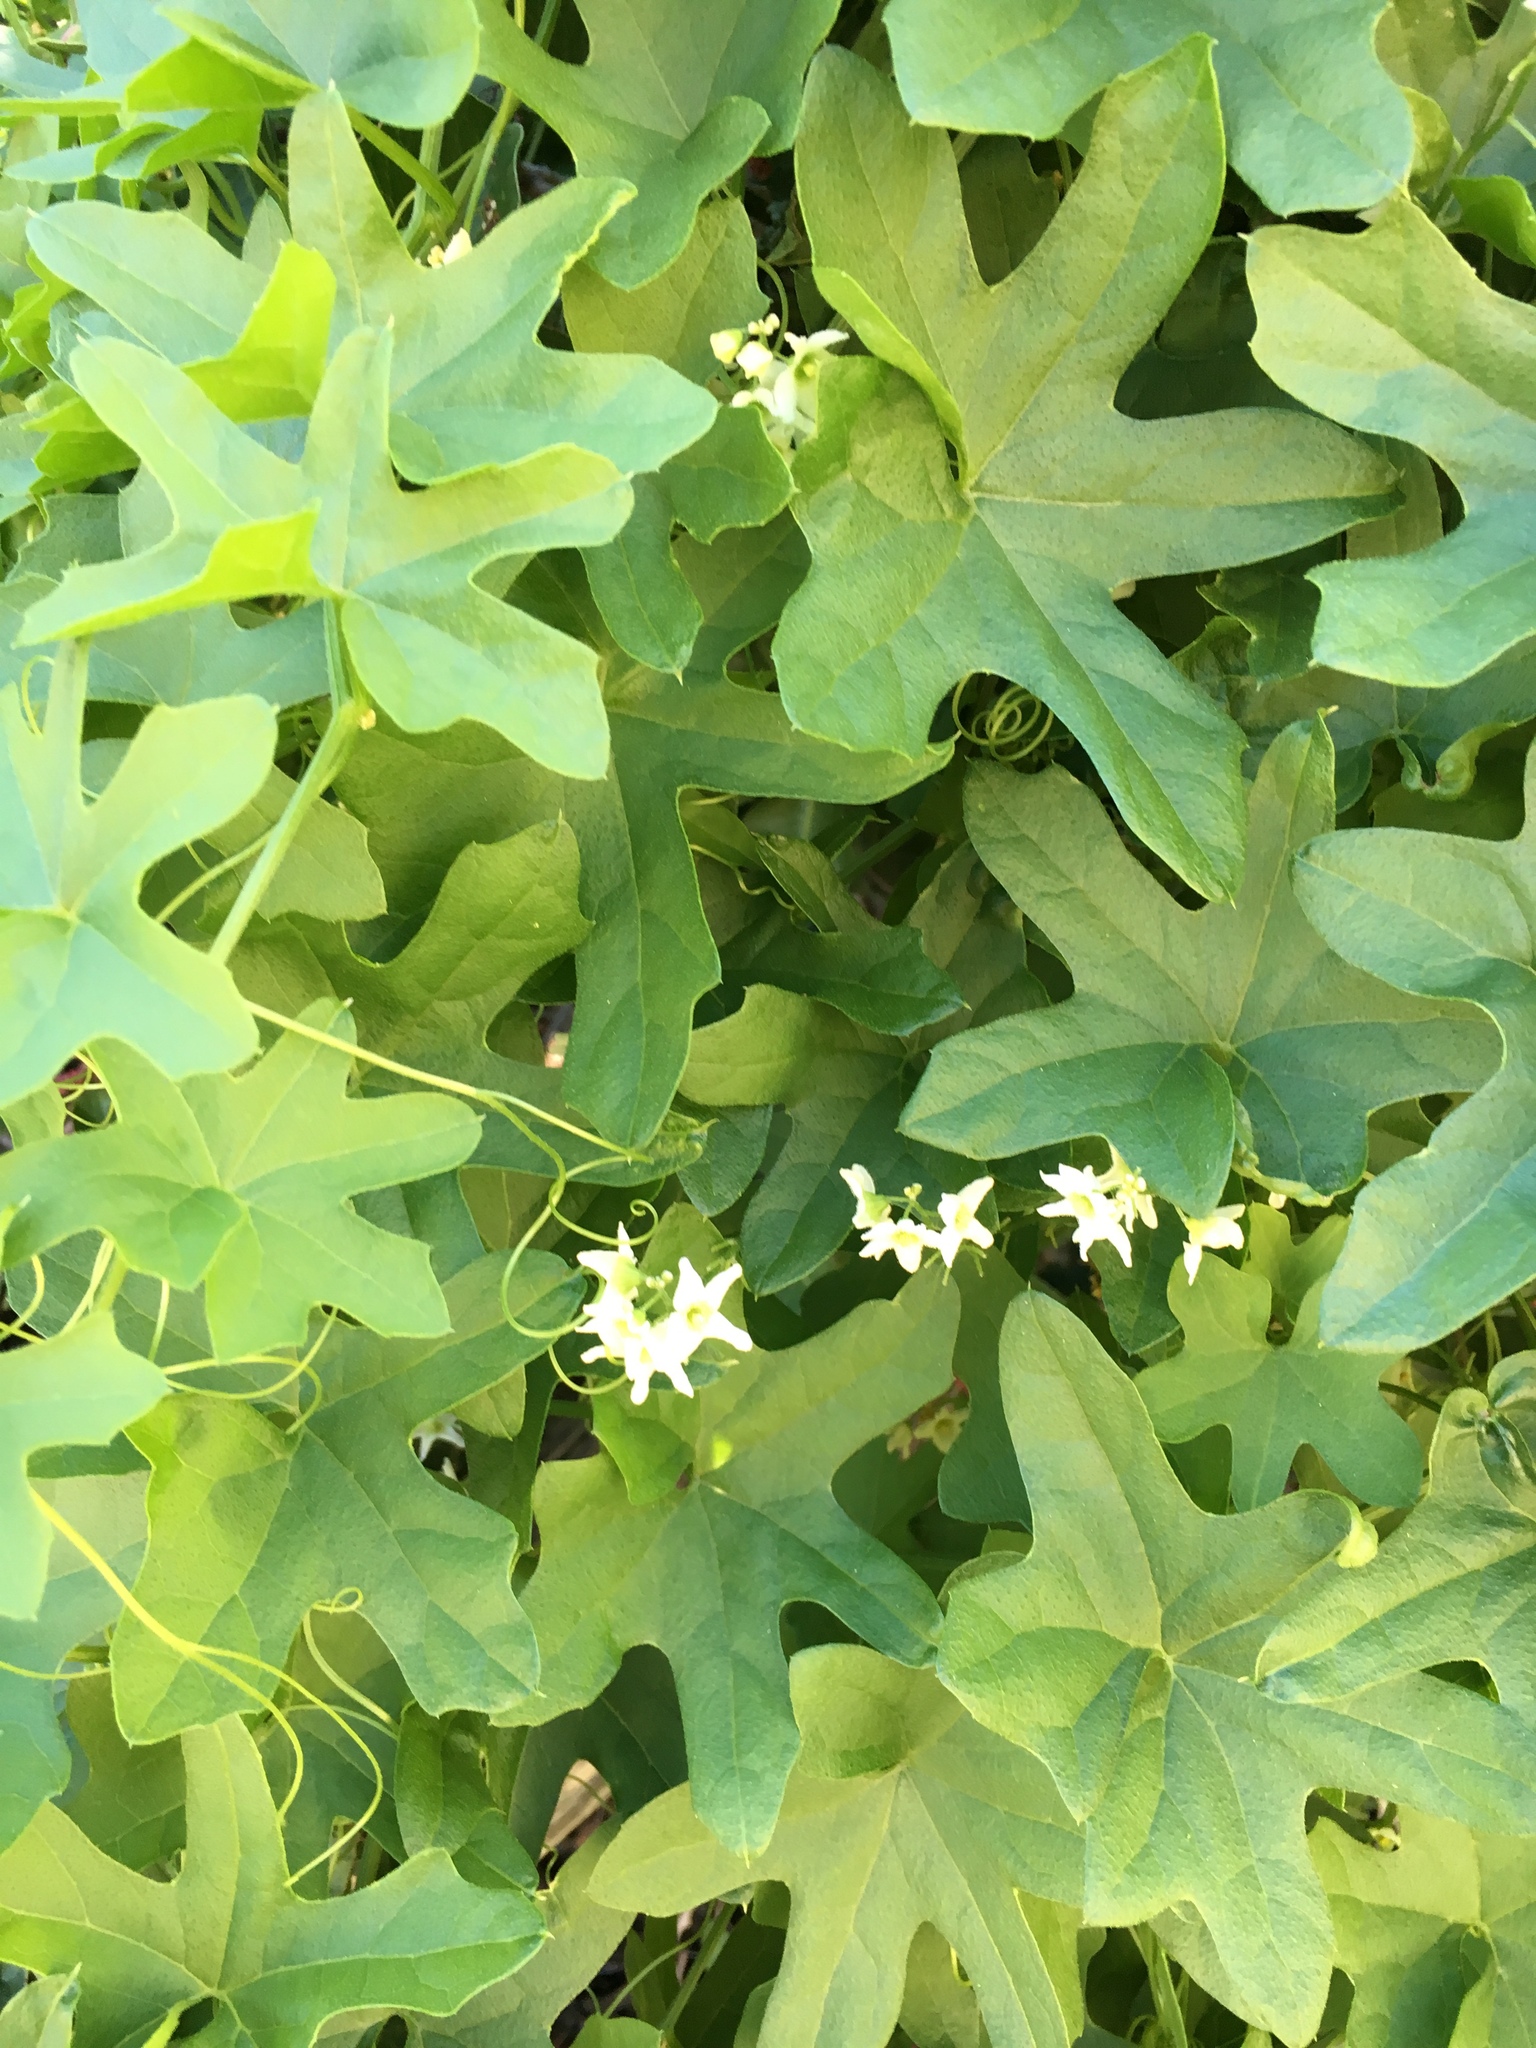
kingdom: Plantae
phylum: Tracheophyta
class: Magnoliopsida
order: Cucurbitales
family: Cucurbitaceae
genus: Marah
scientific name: Marah macrocarpa
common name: Cucamonga manroot
